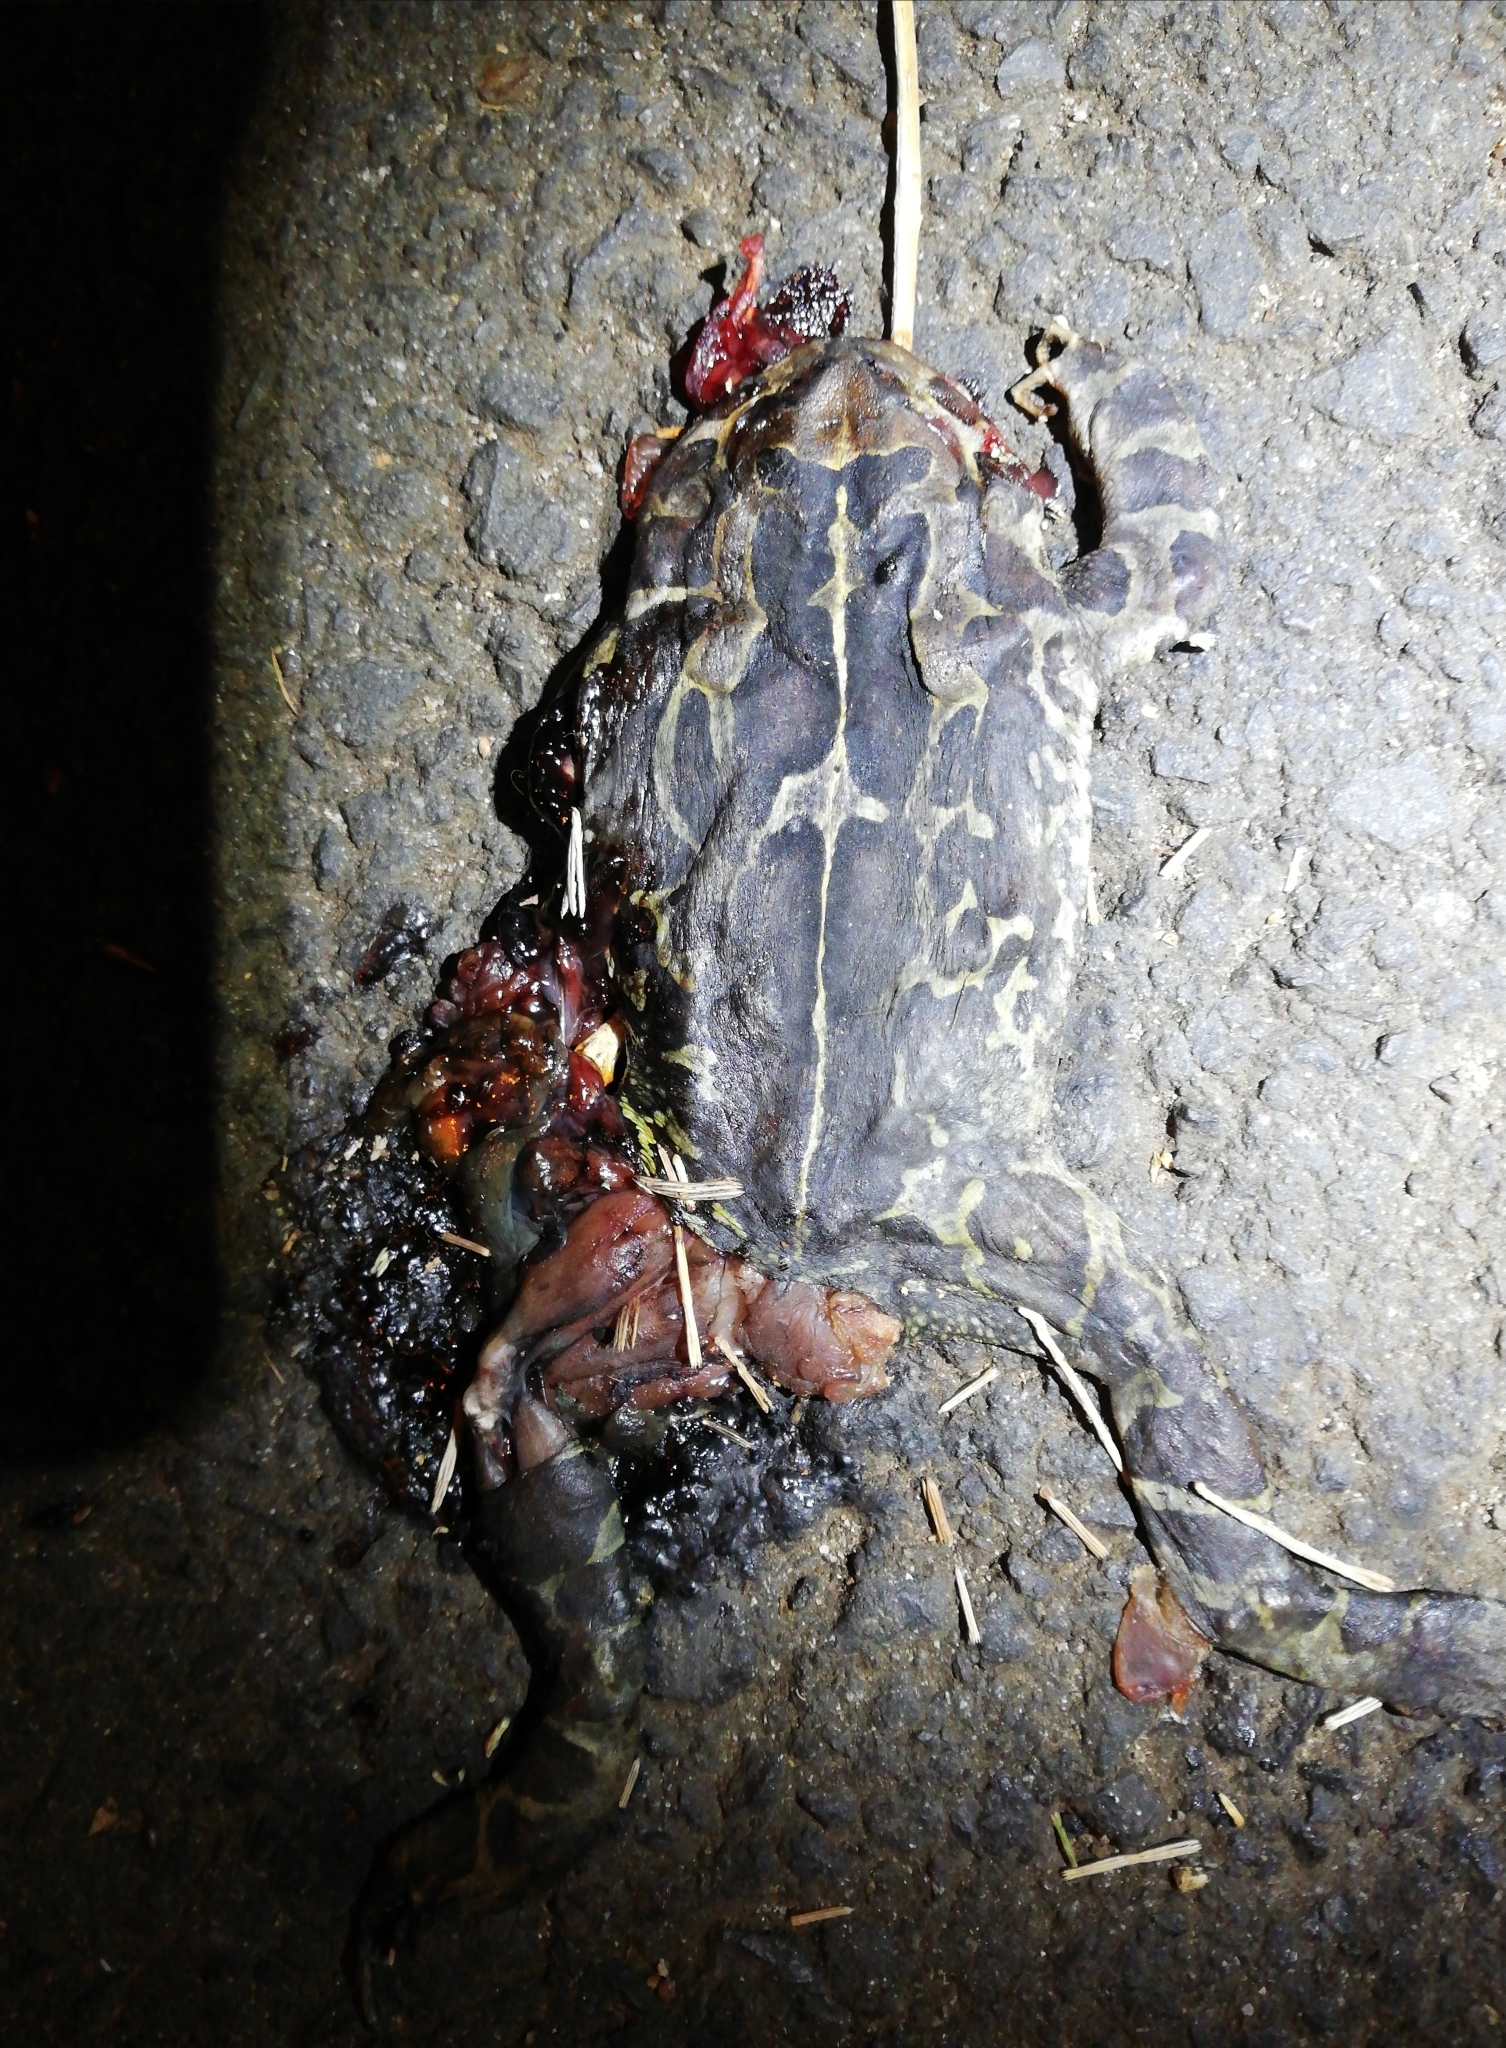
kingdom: Animalia
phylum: Chordata
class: Amphibia
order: Anura
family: Bufonidae
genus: Sclerophrys
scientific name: Sclerophrys pantherina
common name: Panther toad
